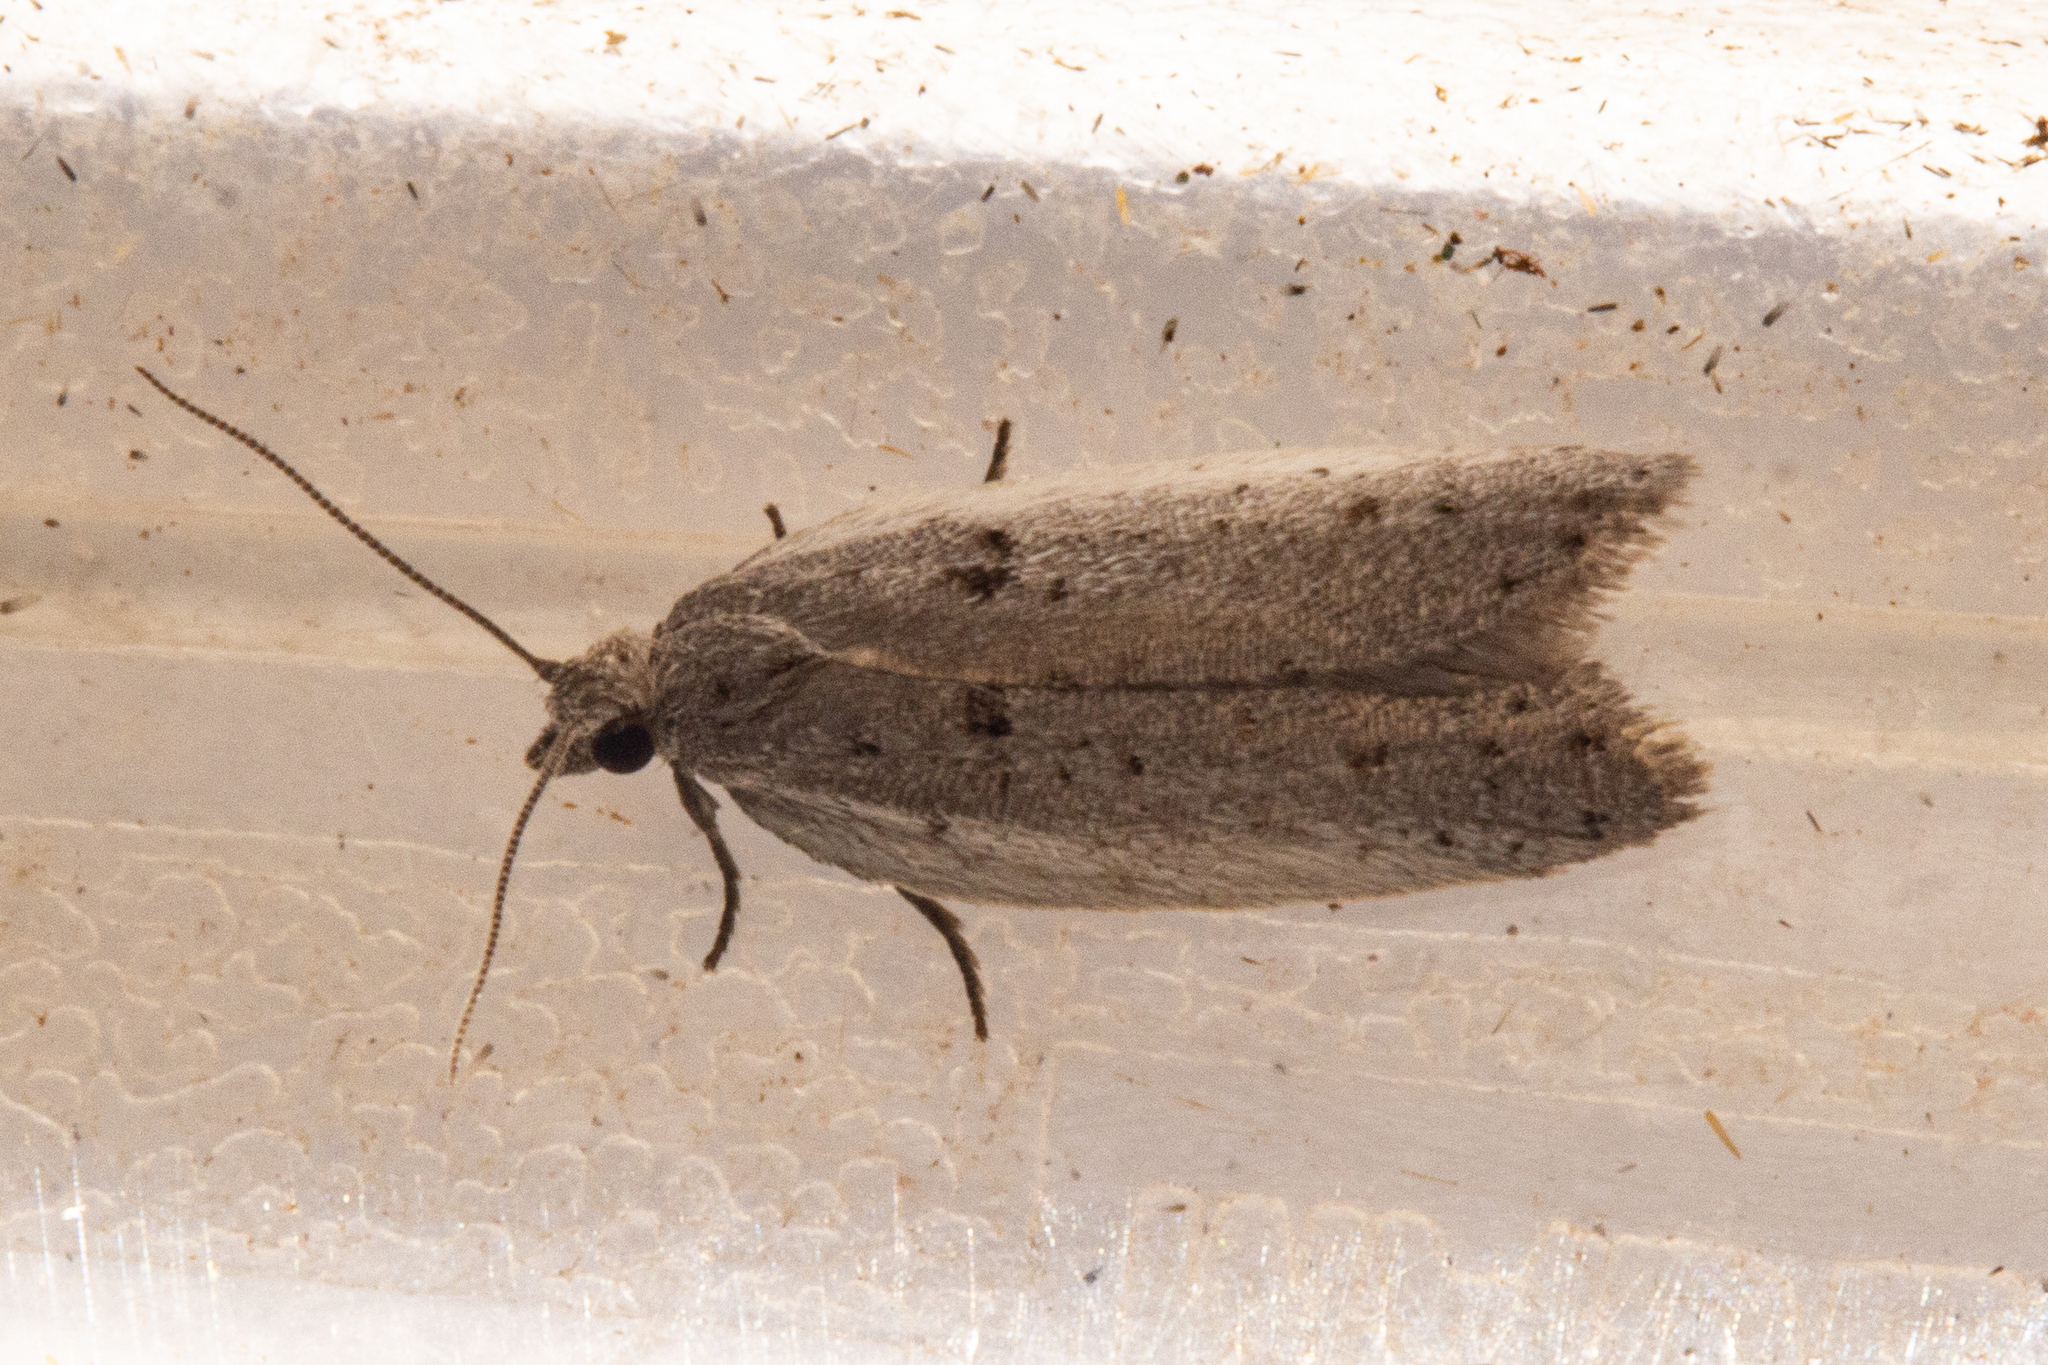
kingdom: Animalia
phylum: Arthropoda
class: Insecta
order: Lepidoptera
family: Tortricidae
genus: Ericodesma
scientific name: Ericodesma cuneata
